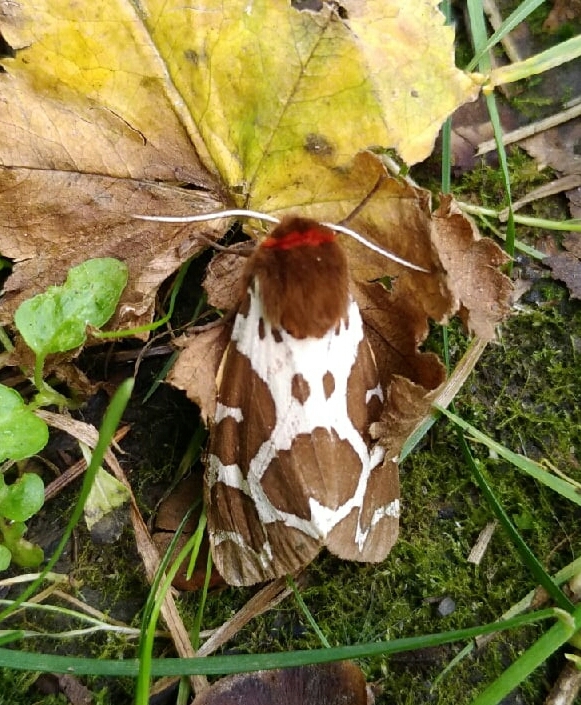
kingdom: Animalia
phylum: Arthropoda
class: Insecta
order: Lepidoptera
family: Erebidae
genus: Arctia
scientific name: Arctia caja
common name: Garden tiger
